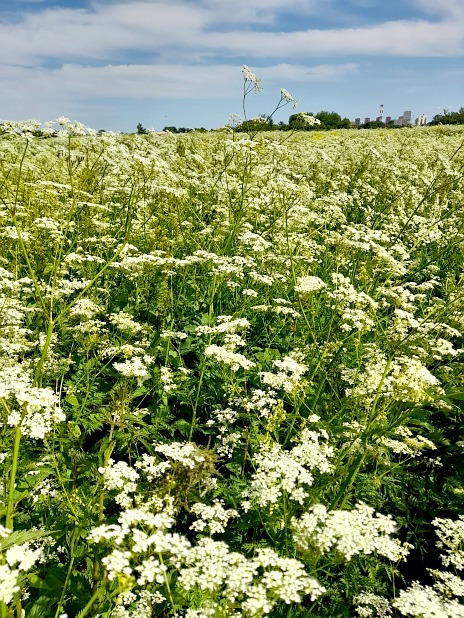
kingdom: Plantae
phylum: Tracheophyta
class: Magnoliopsida
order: Apiales
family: Apiaceae
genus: Anthriscus
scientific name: Anthriscus sylvestris
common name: Cow parsley
